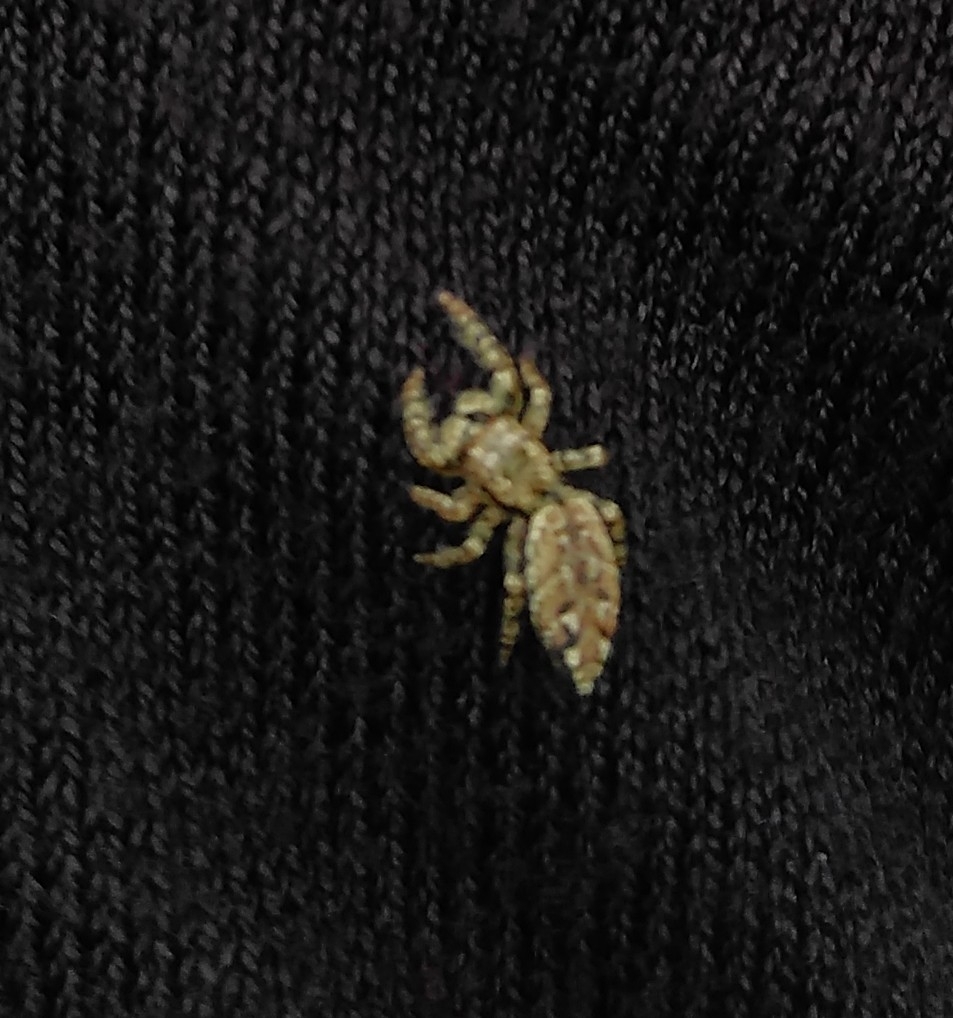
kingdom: Animalia
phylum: Arthropoda
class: Arachnida
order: Araneae
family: Salticidae
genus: Marpissa
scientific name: Marpissa muscosa
